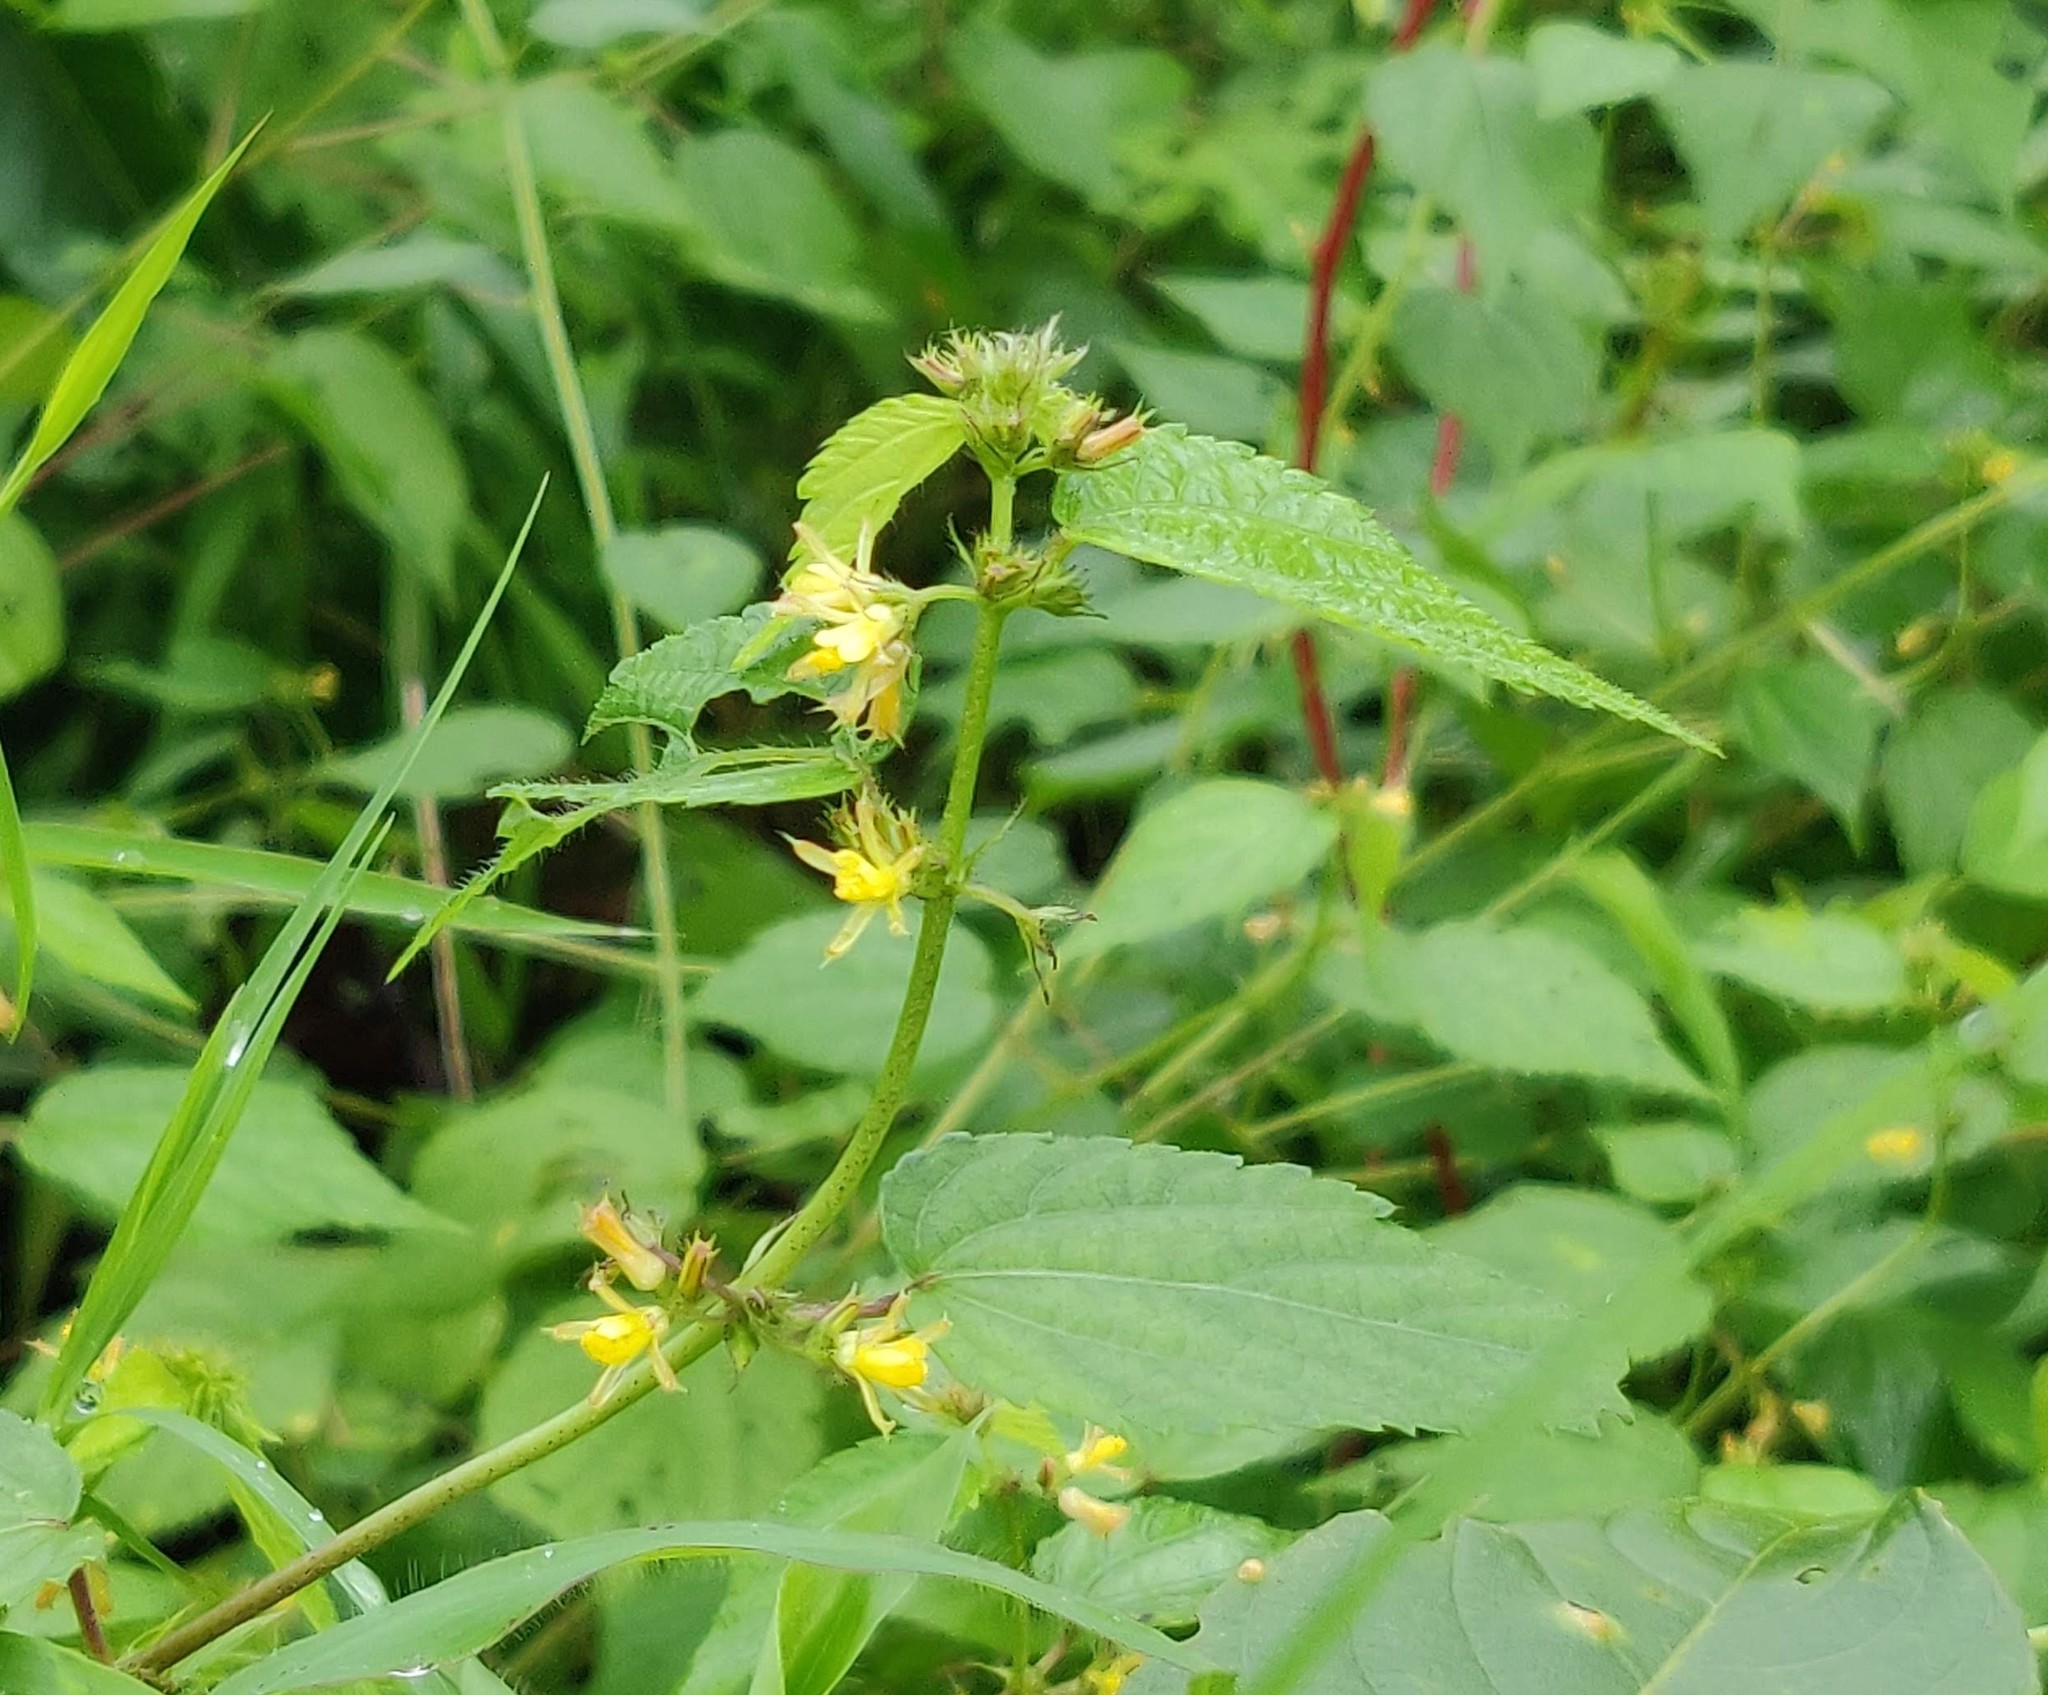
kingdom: Plantae
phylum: Tracheophyta
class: Magnoliopsida
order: Malvales
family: Malvaceae
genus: Triumfetta
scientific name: Triumfetta pentandra
